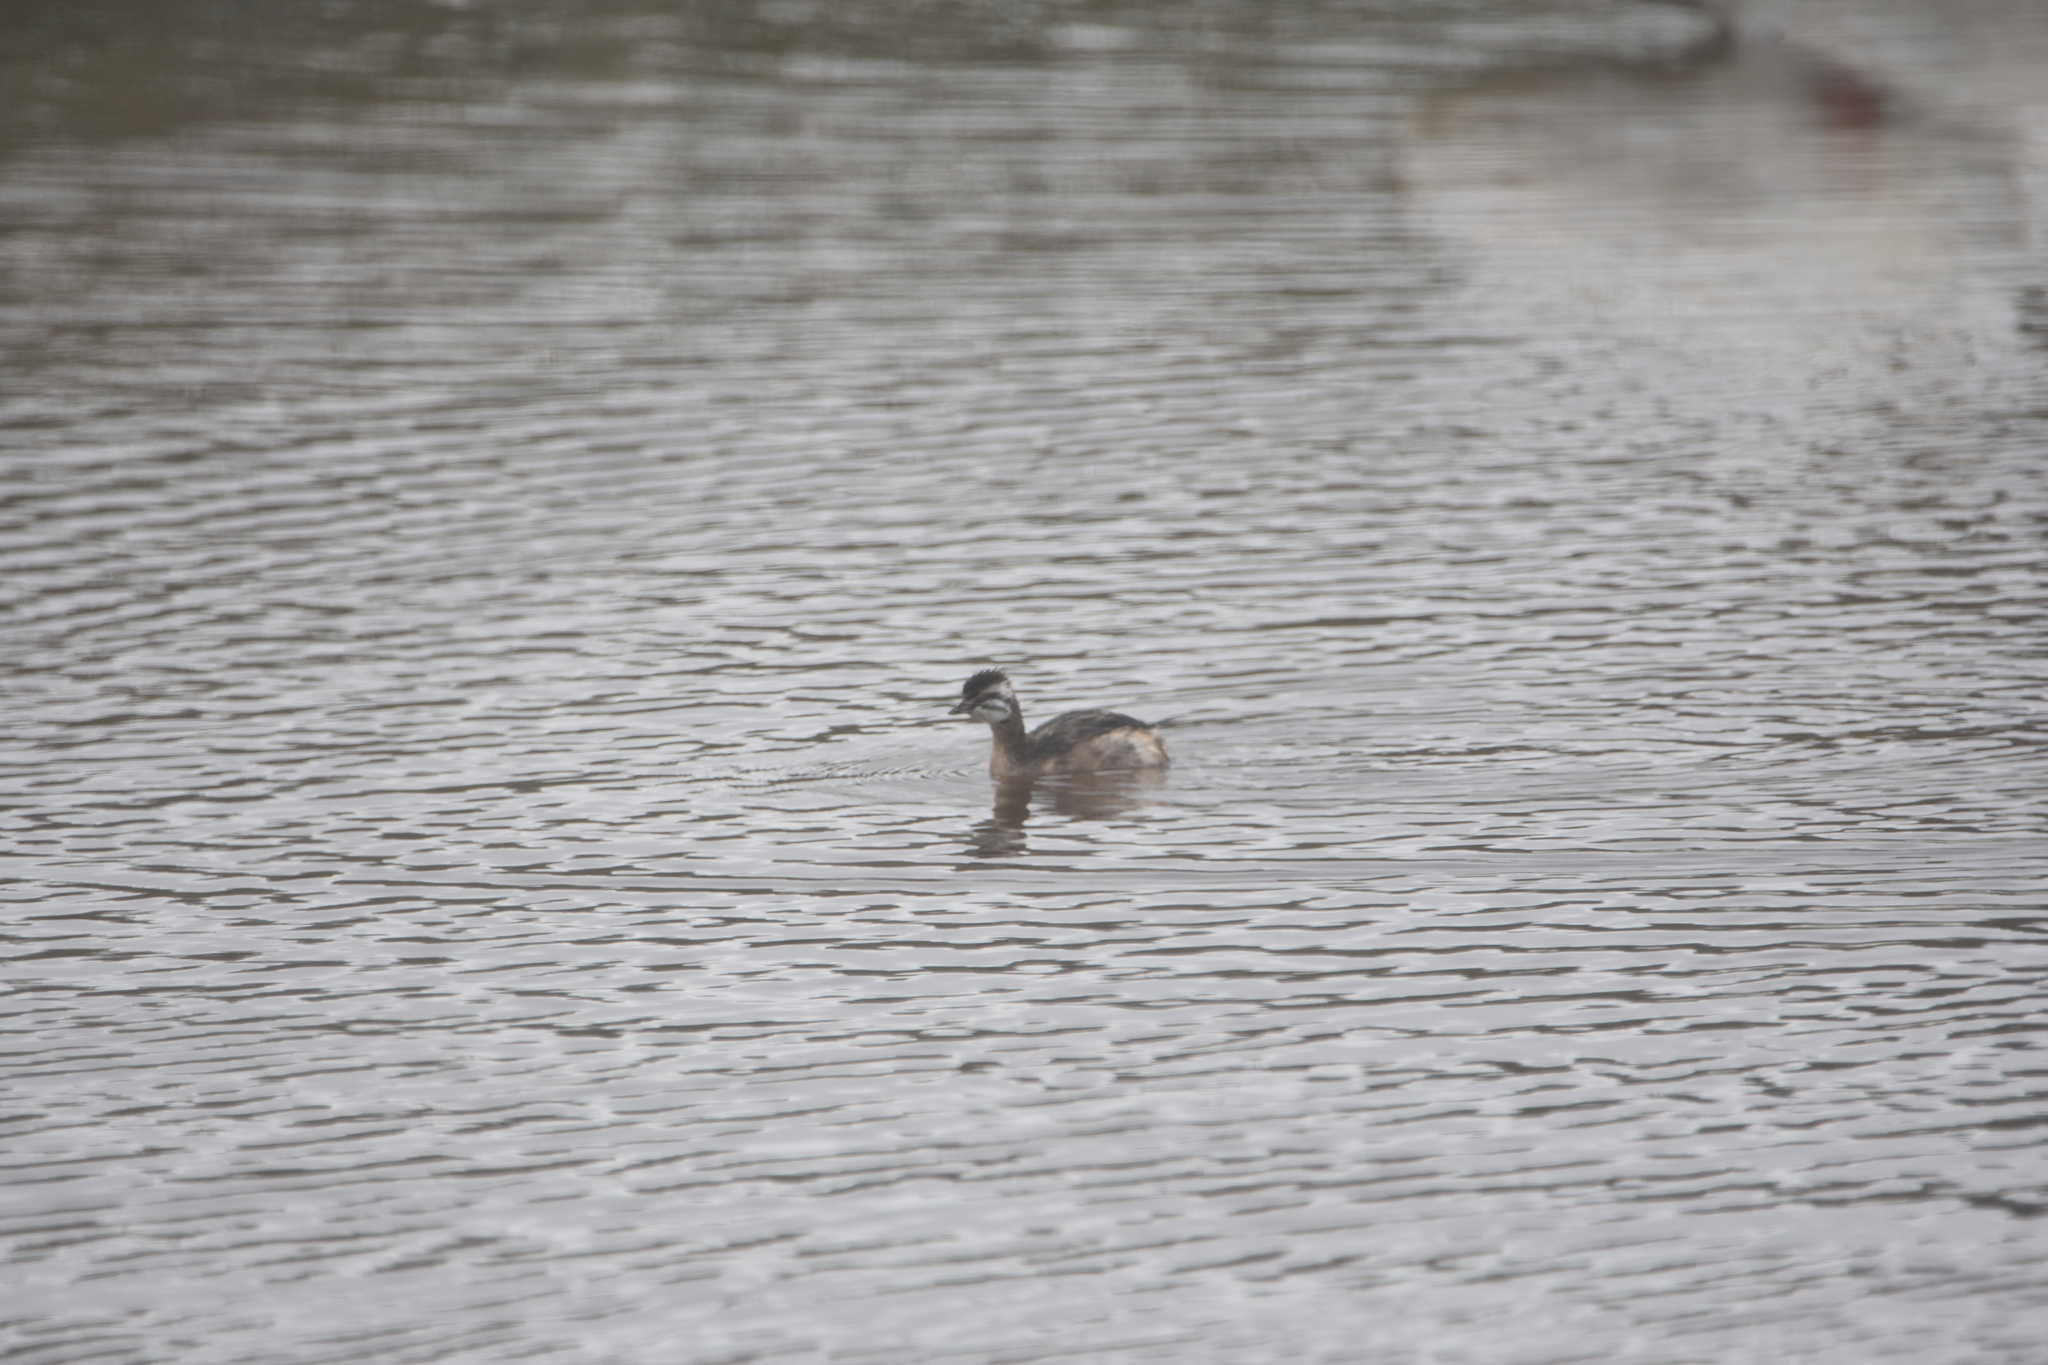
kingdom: Animalia
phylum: Chordata
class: Aves
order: Podicipediformes
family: Podicipedidae
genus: Rollandia
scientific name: Rollandia rolland
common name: White-tufted grebe
